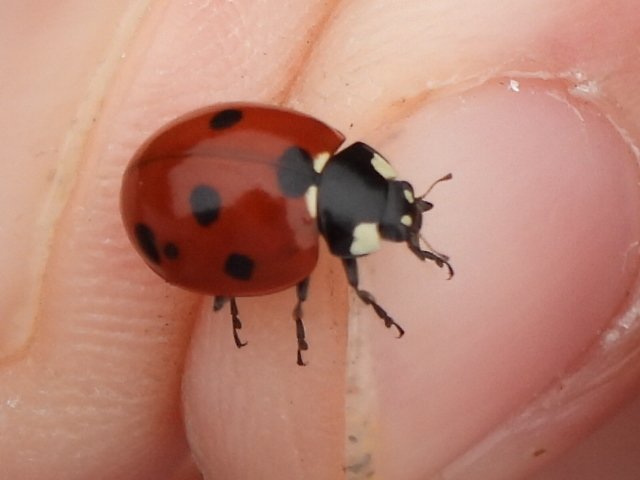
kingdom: Animalia
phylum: Arthropoda
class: Insecta
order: Coleoptera
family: Coccinellidae
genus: Coccinella
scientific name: Coccinella septempunctata
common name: Sevenspotted lady beetle
